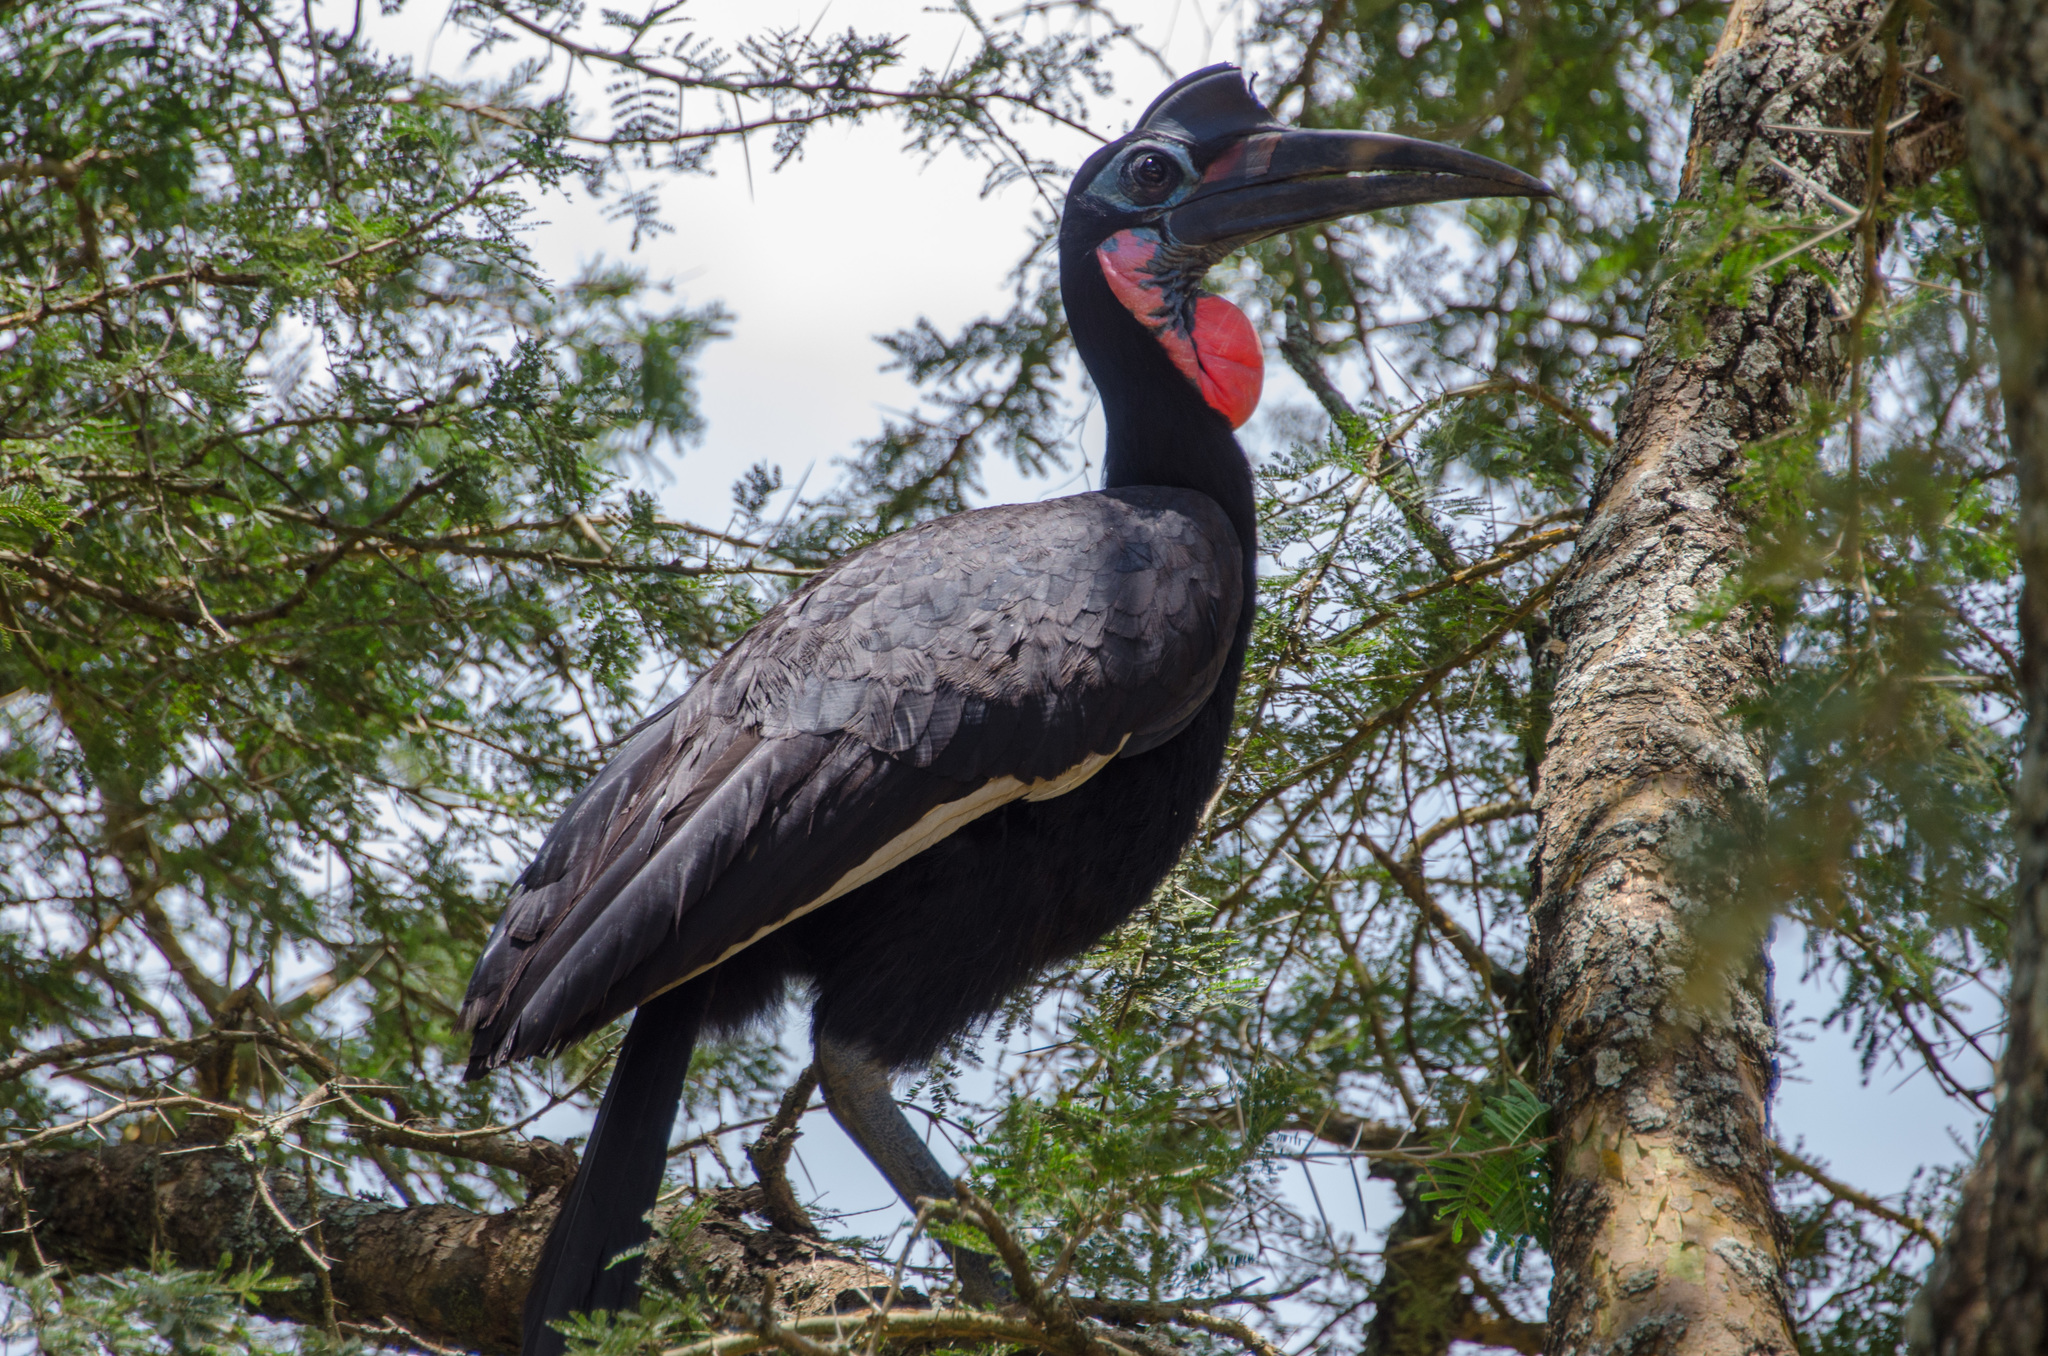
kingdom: Animalia
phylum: Chordata
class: Aves
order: Bucerotiformes
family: Bucorvidae
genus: Bucorvus
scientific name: Bucorvus abyssinicus
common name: Abyssinian ground hornbill
